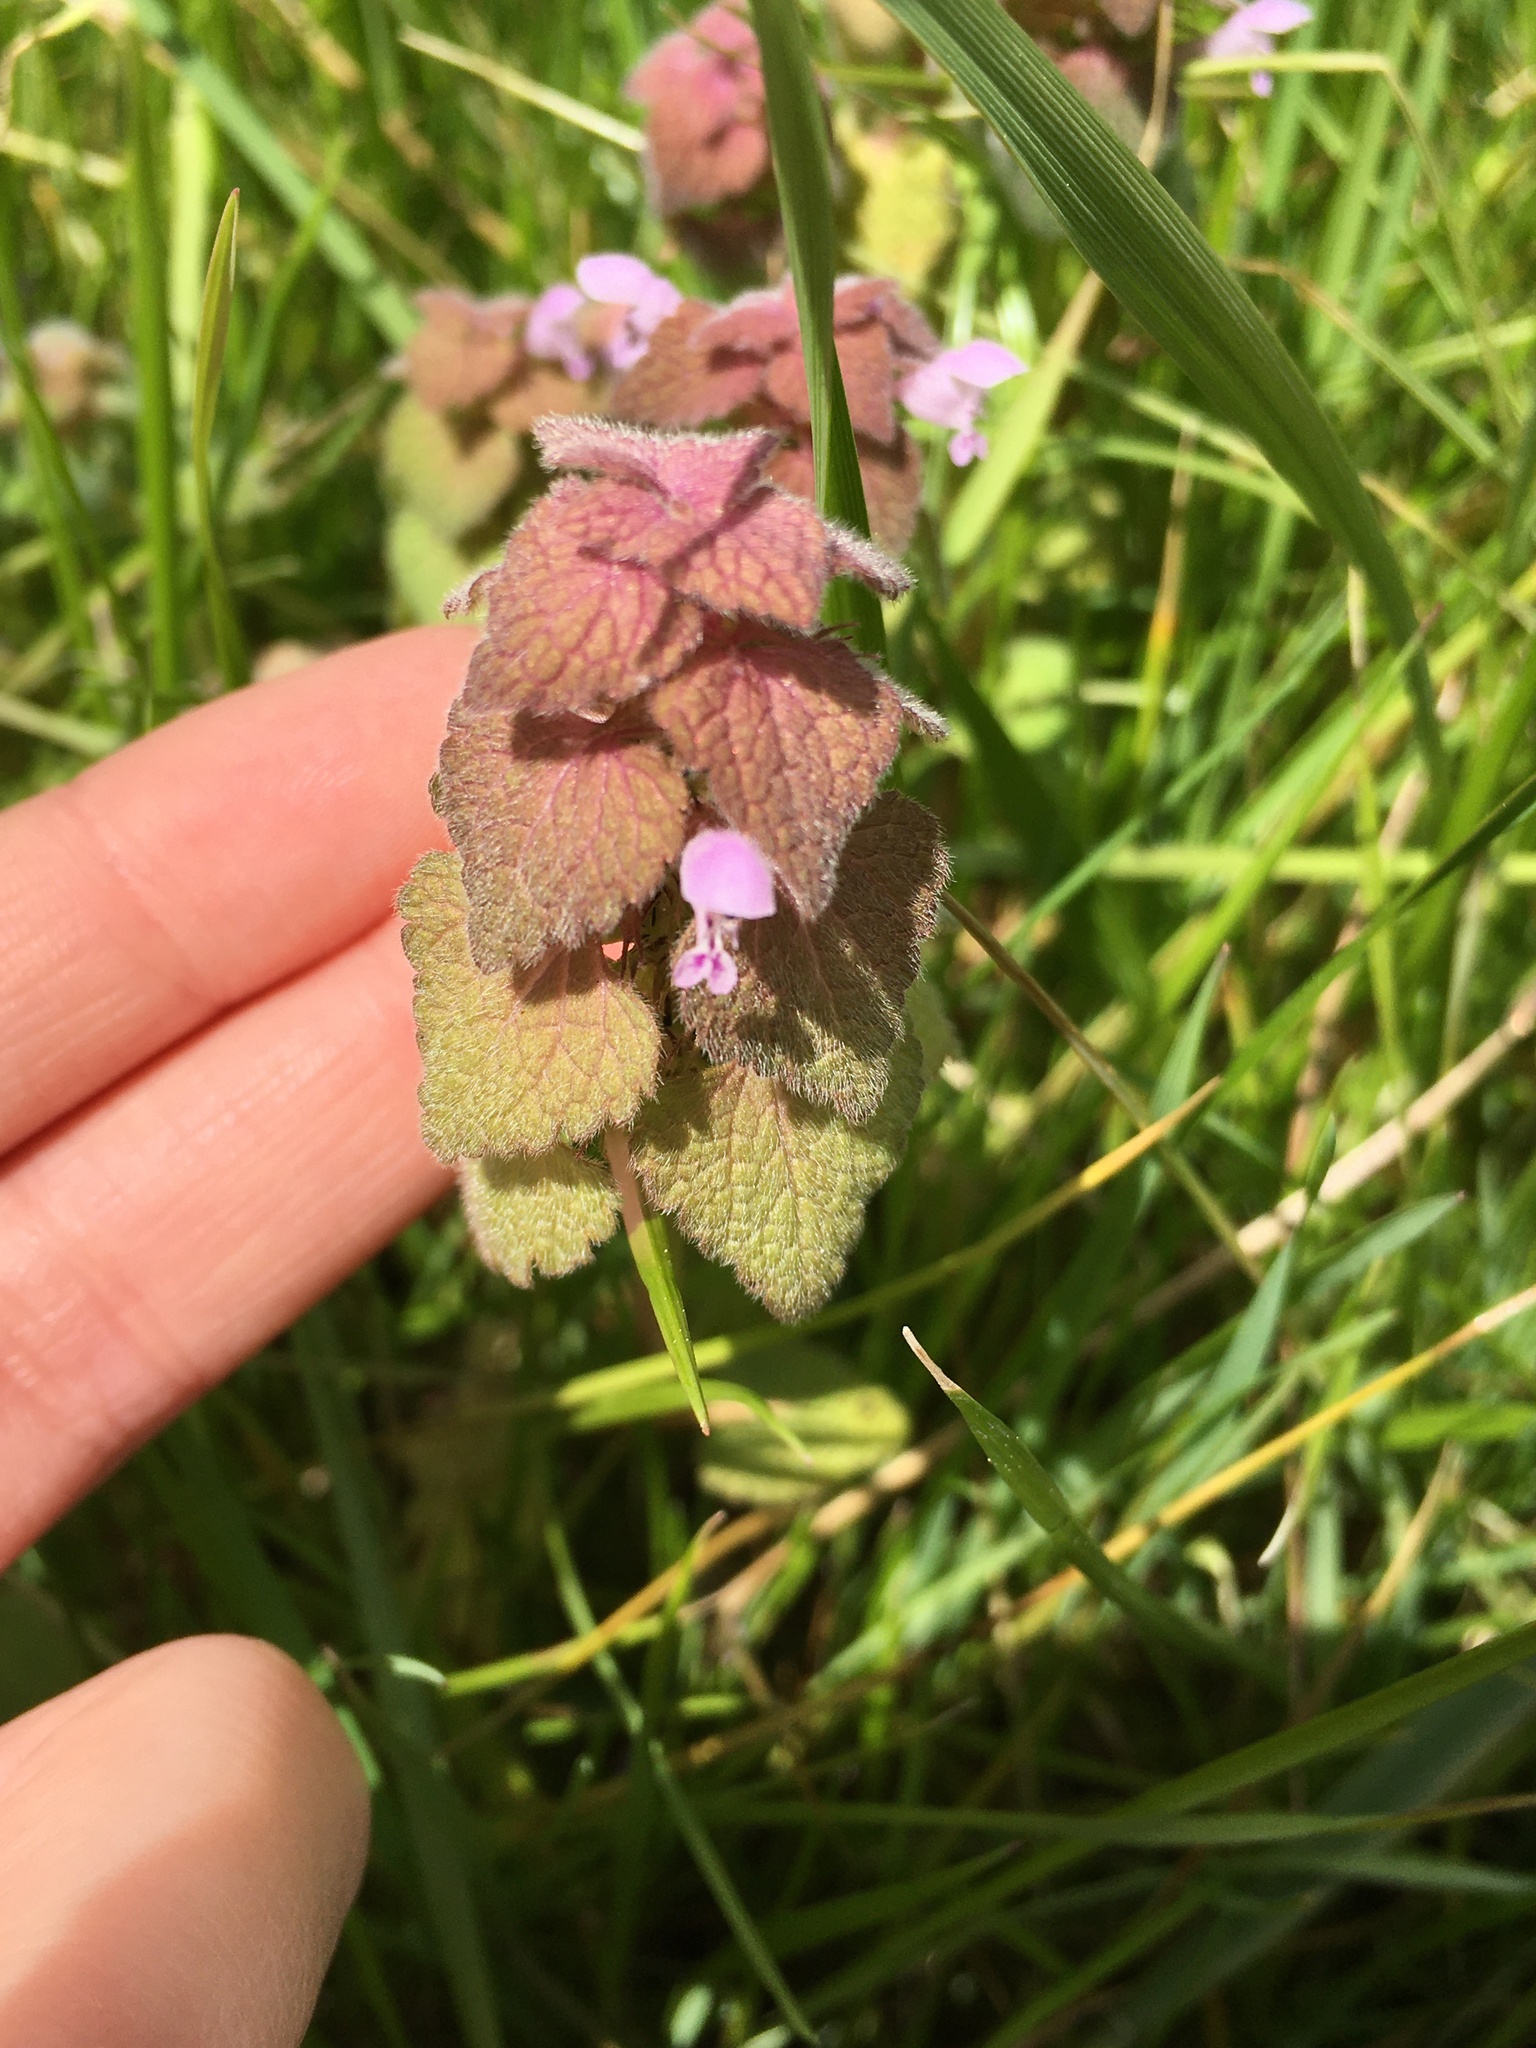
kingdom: Plantae
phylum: Tracheophyta
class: Magnoliopsida
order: Lamiales
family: Lamiaceae
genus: Lamium
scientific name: Lamium purpureum
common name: Red dead-nettle
